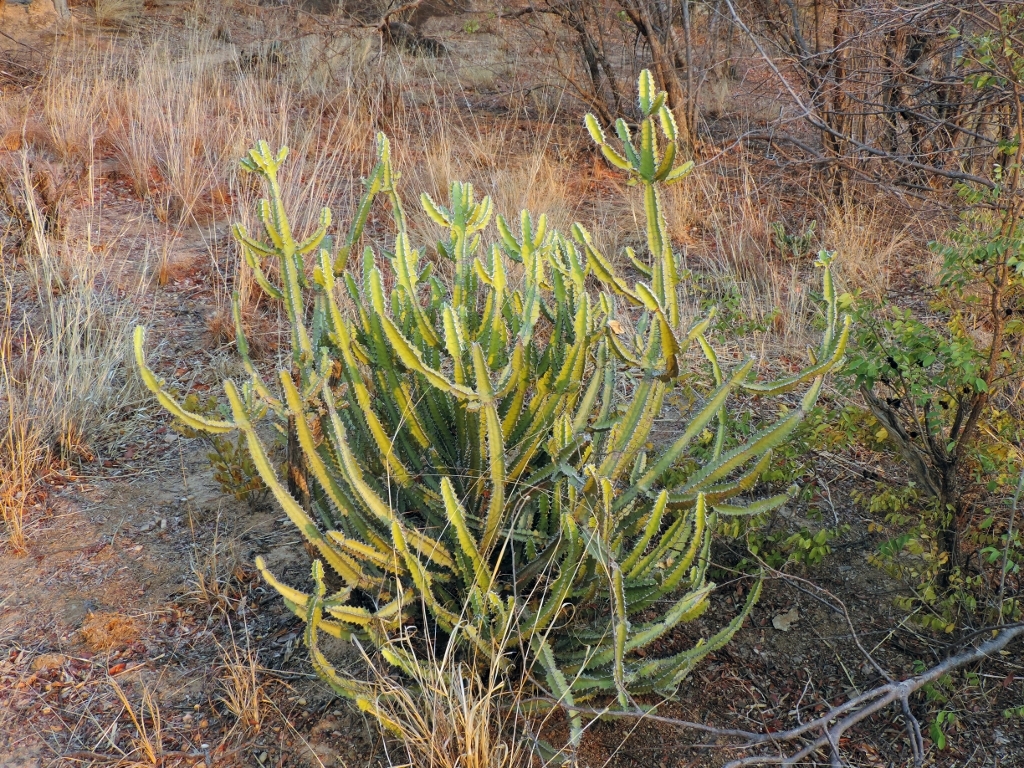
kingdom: Plantae
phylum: Tracheophyta
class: Magnoliopsida
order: Malpighiales
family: Euphorbiaceae
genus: Euphorbia
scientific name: Euphorbia griseola
